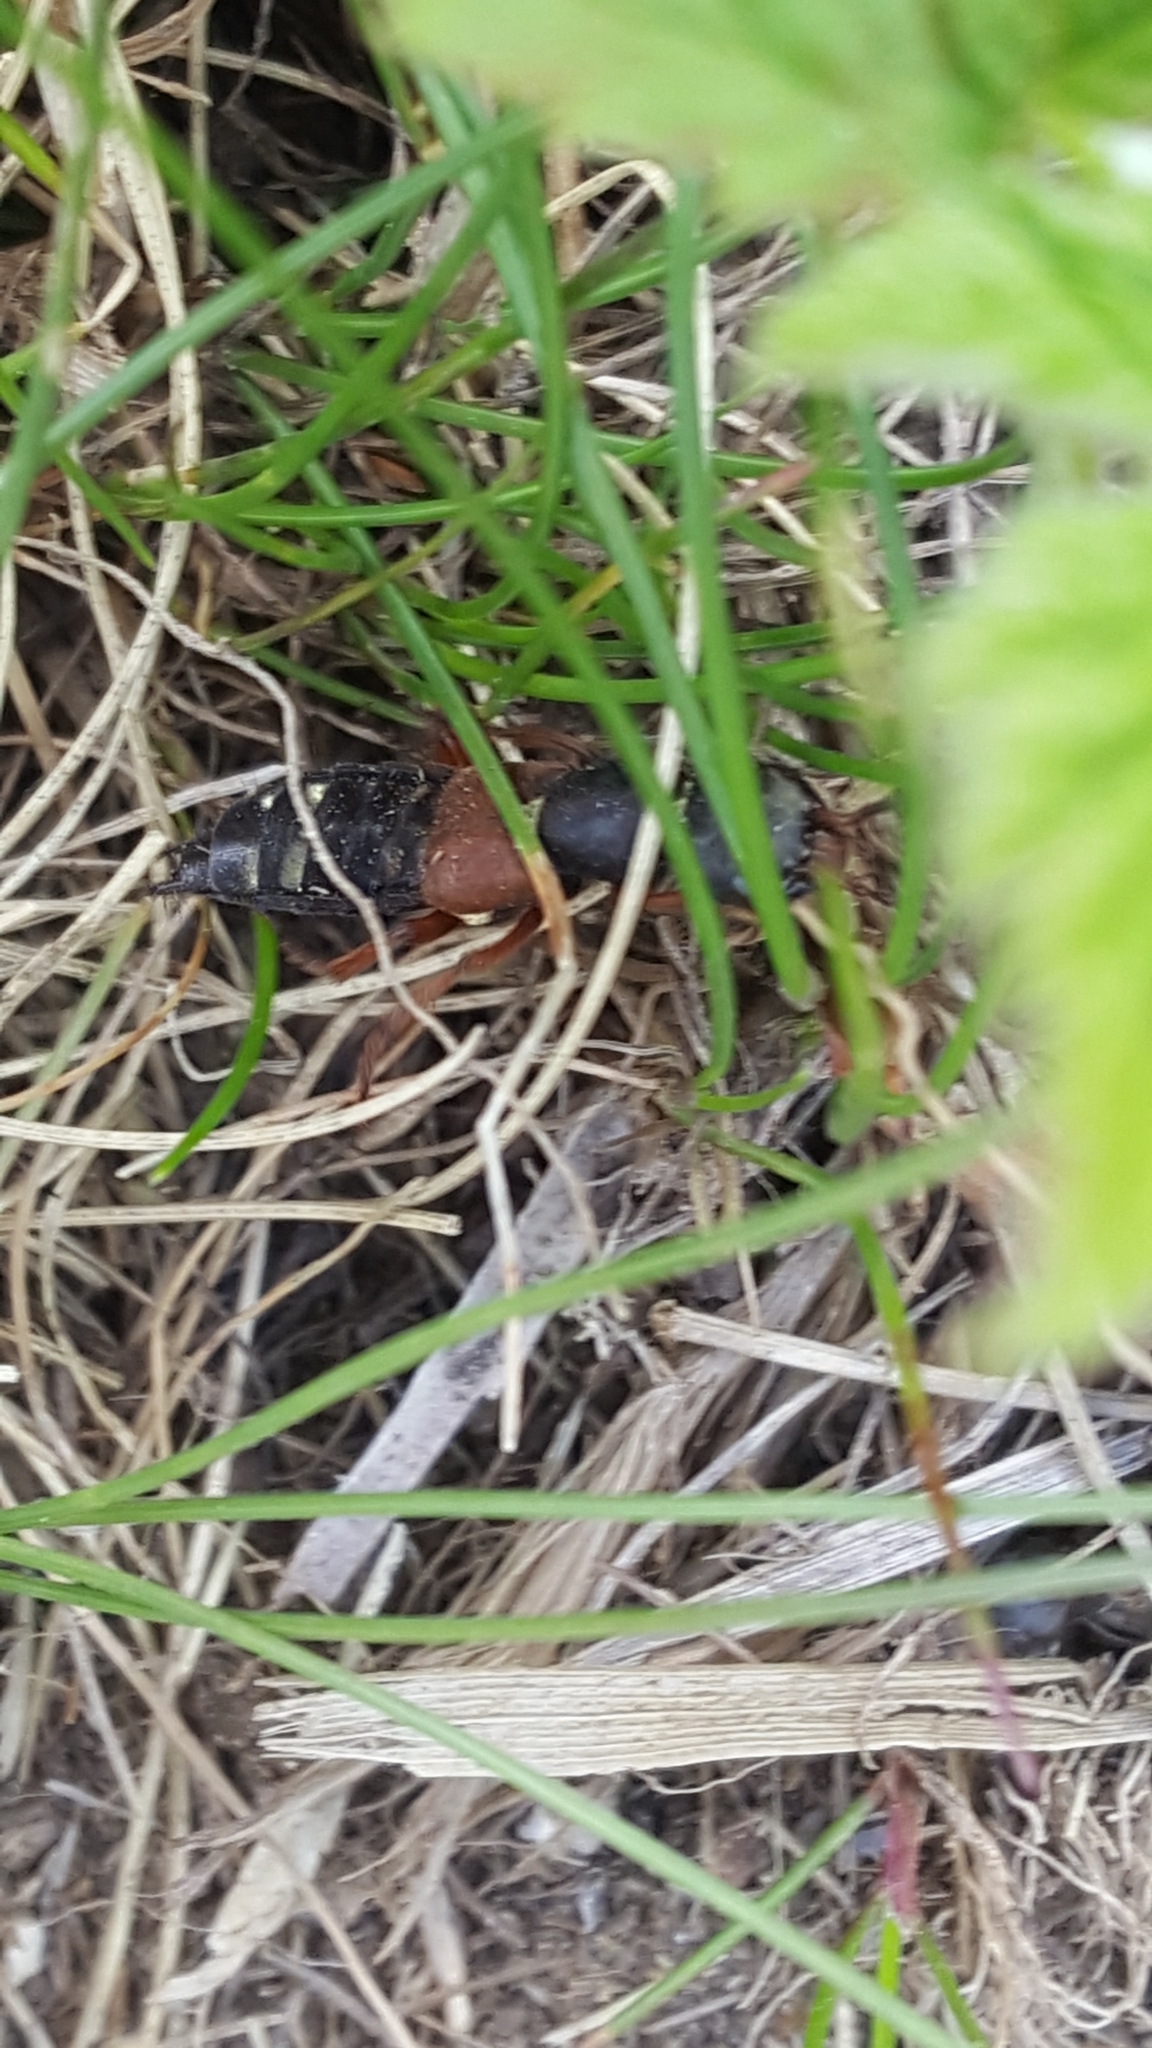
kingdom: Animalia
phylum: Arthropoda
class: Insecta
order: Coleoptera
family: Staphylinidae
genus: Staphylinus
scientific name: Staphylinus erythropterus
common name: Staph beetle
